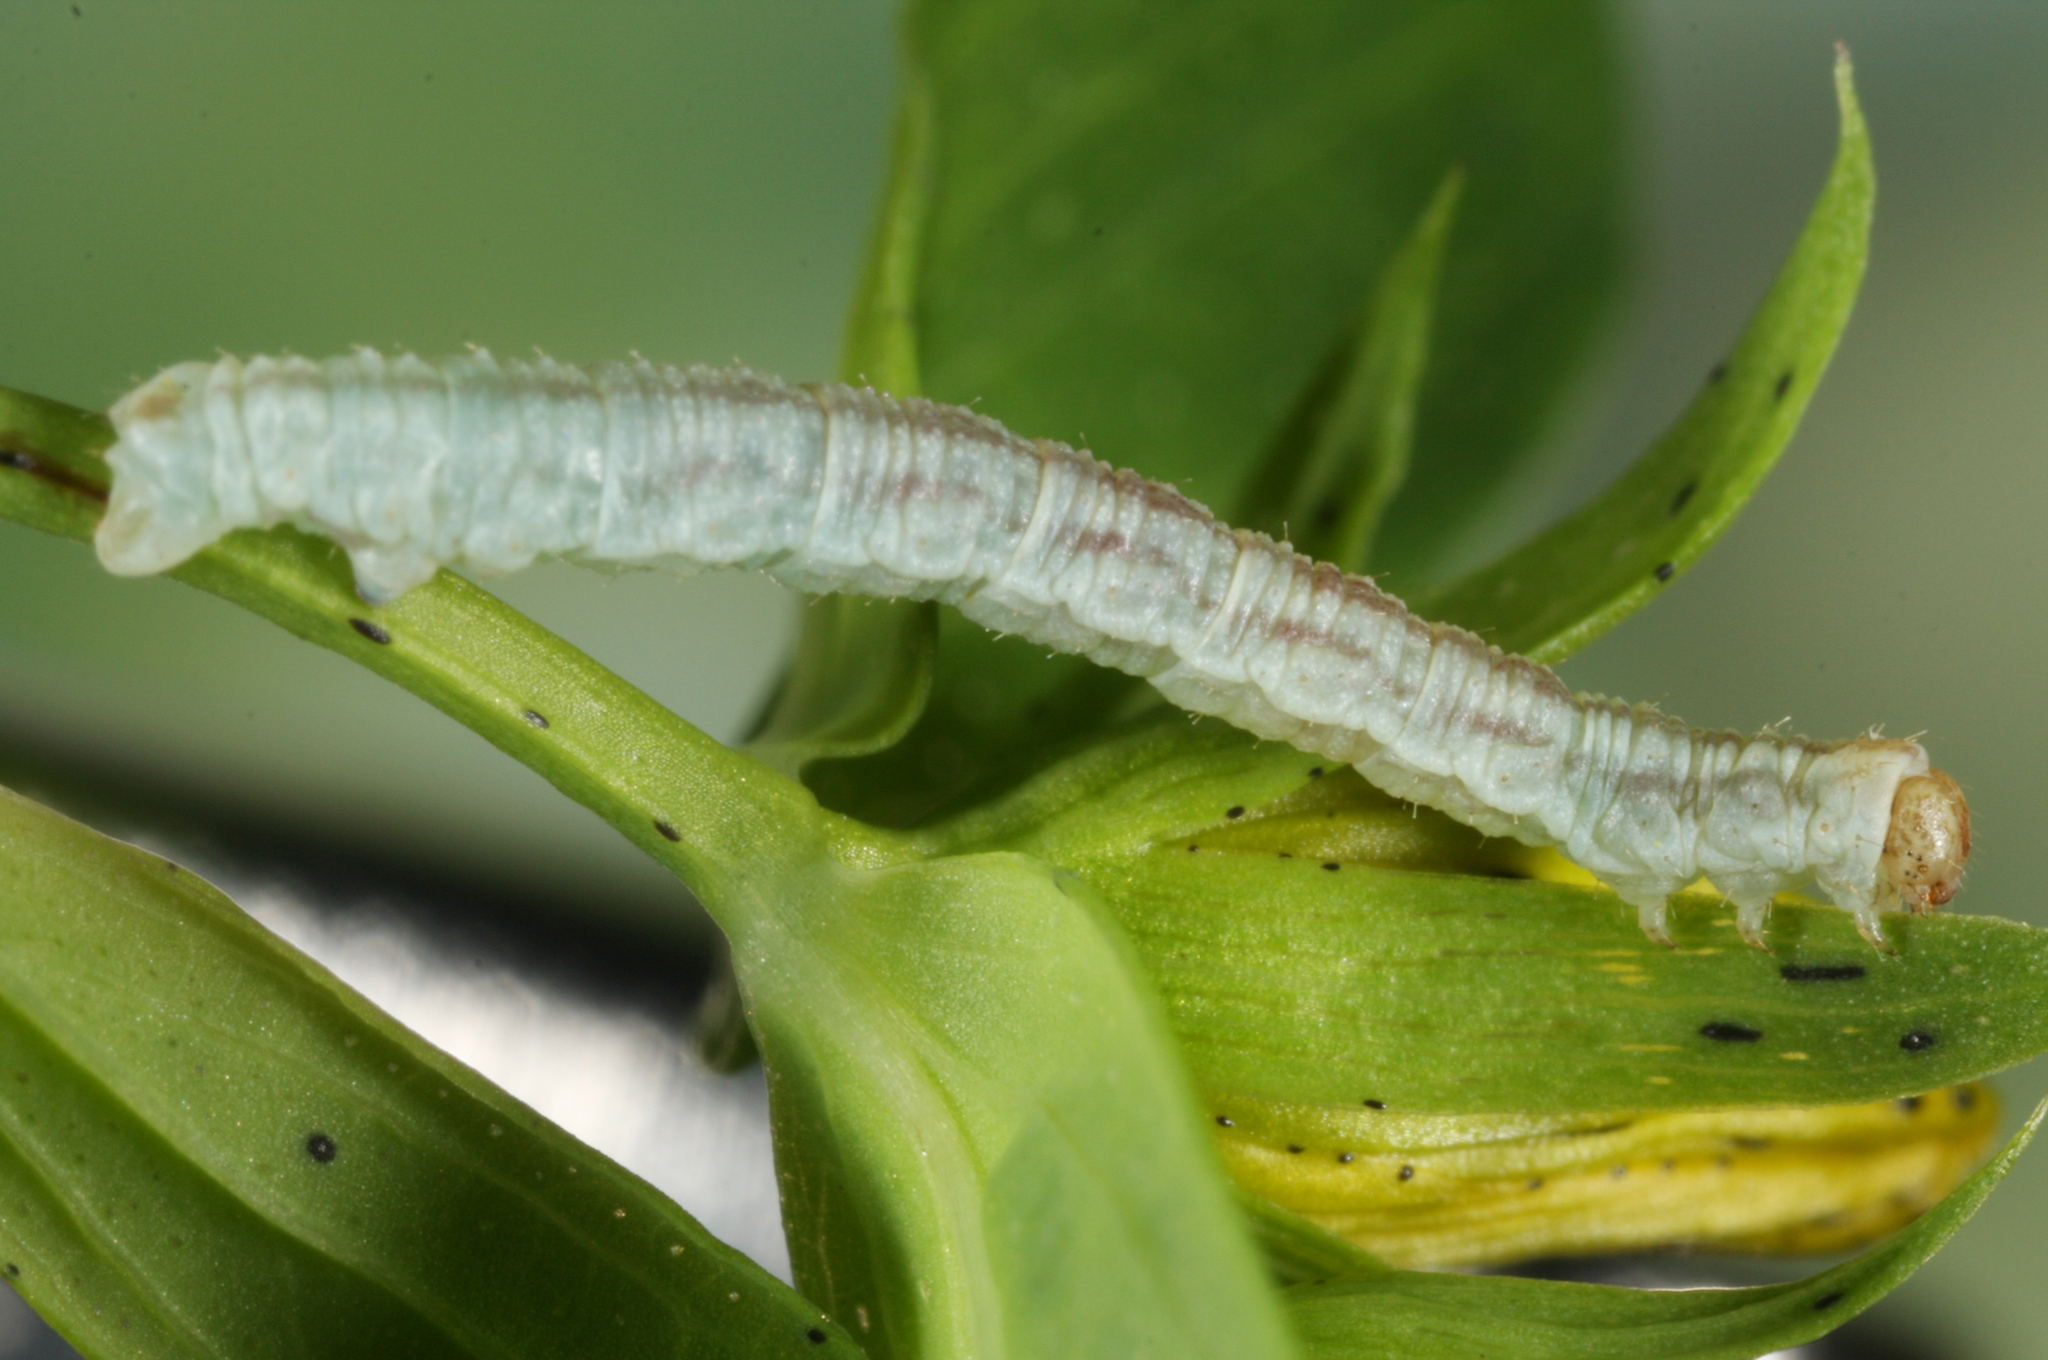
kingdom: Animalia
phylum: Arthropoda
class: Insecta
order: Lepidoptera
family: Geometridae
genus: Eupithecia
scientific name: Eupithecia absinthiata
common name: Wormwood pug
